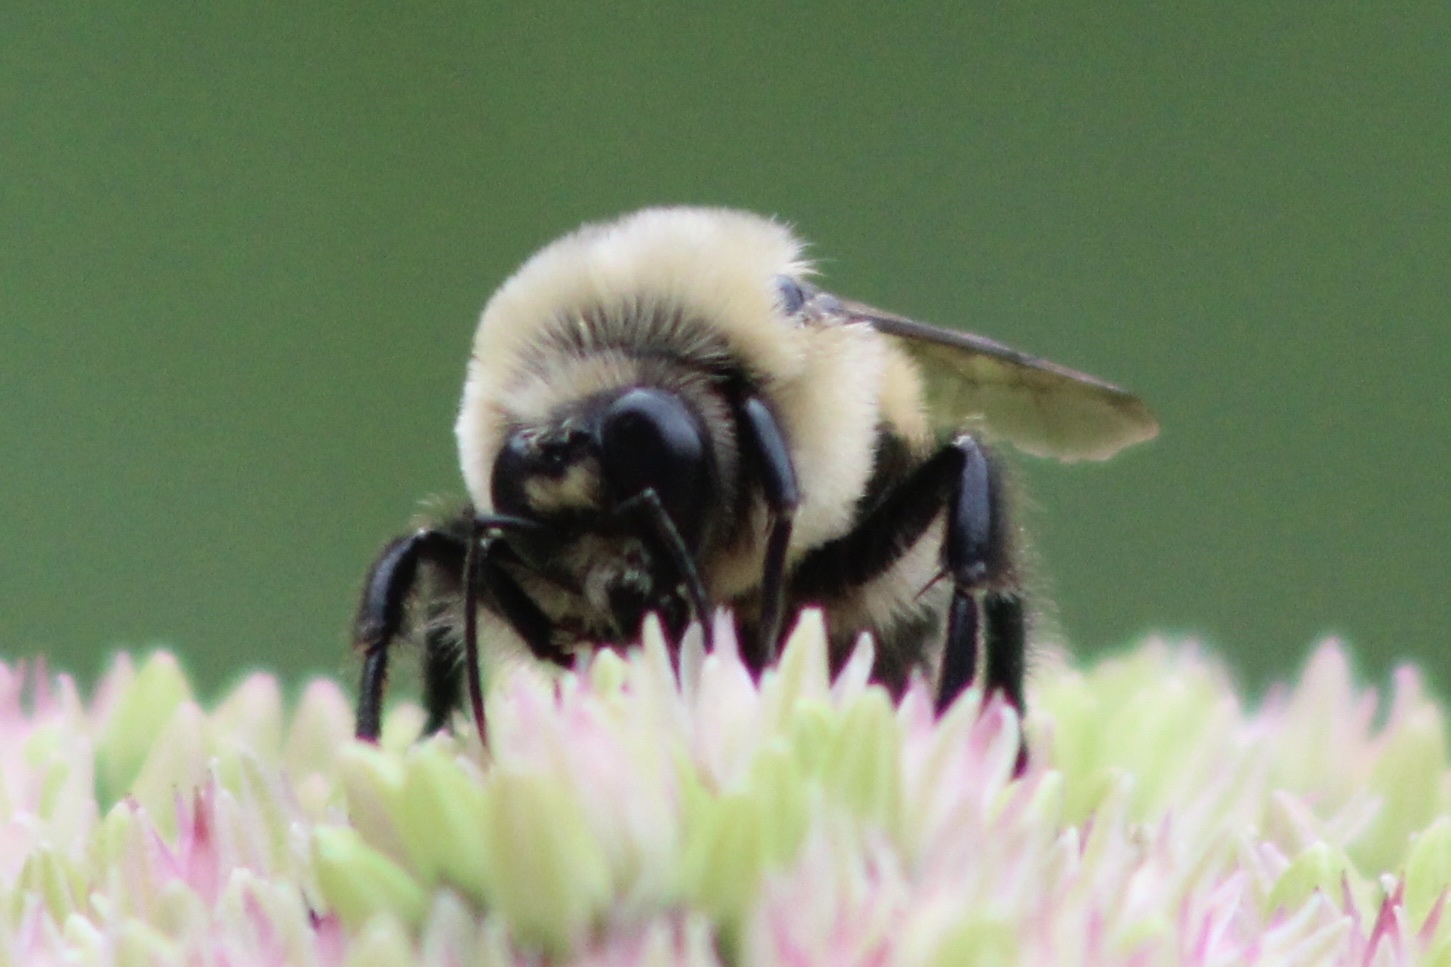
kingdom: Animalia
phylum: Arthropoda
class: Insecta
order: Hymenoptera
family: Apidae
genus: Bombus
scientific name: Bombus griseocollis
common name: Brown-belted bumble bee
